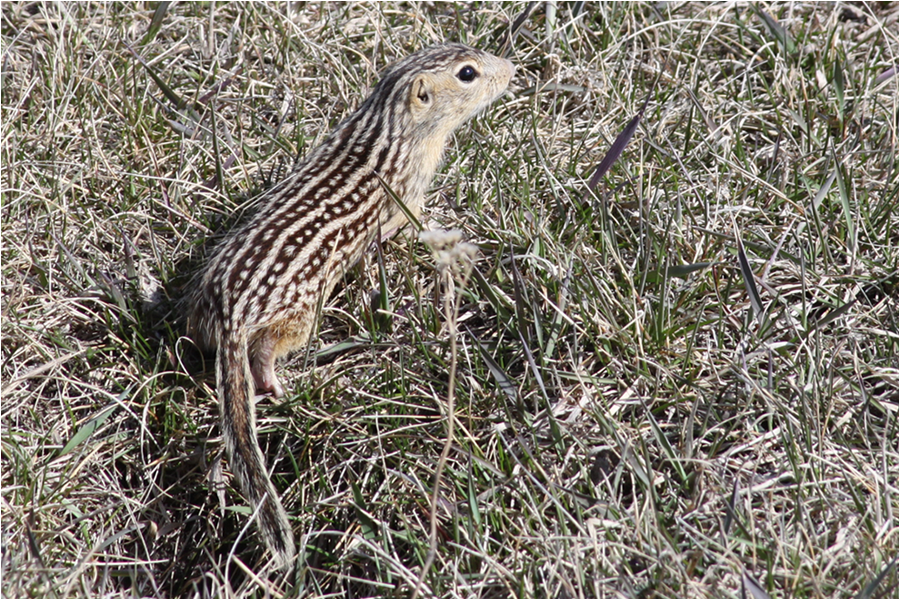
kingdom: Animalia
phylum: Chordata
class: Mammalia
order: Rodentia
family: Sciuridae
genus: Ictidomys
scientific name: Ictidomys tridecemlineatus
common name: Thirteen-lined ground squirrel
